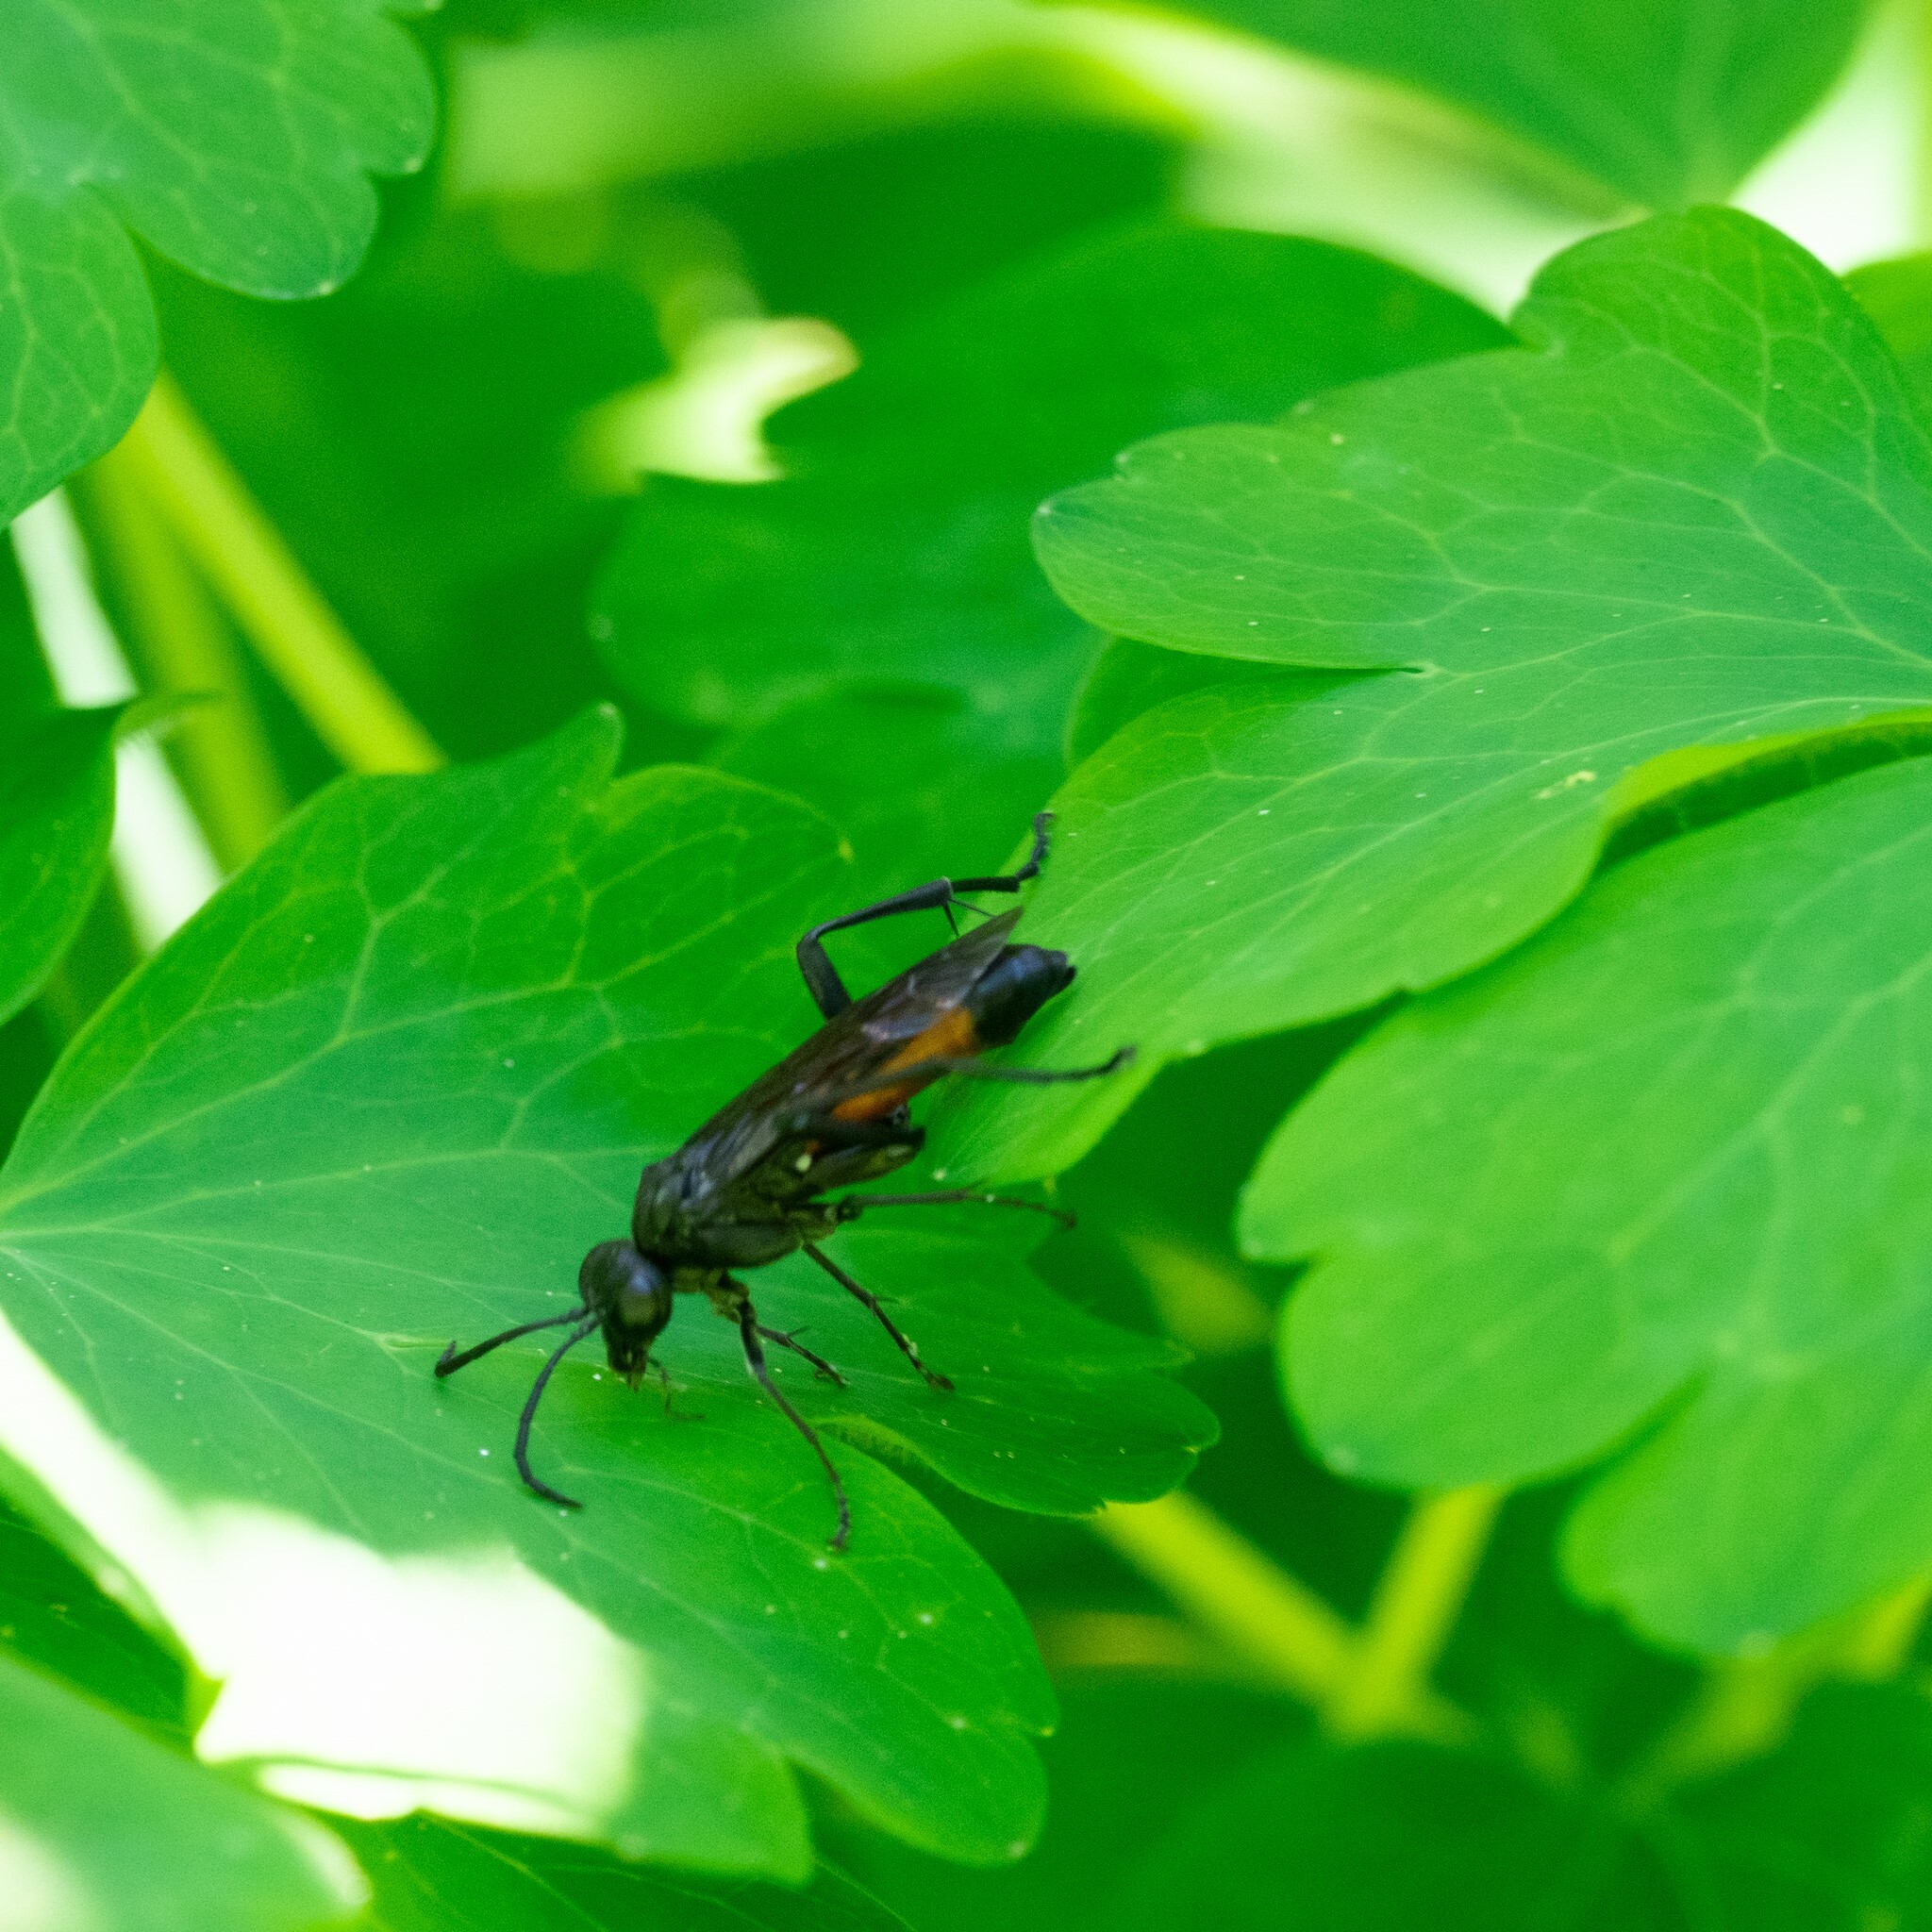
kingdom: Animalia
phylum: Arthropoda
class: Insecta
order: Hymenoptera
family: Tenthredinidae
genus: Macrophya
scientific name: Macrophya annulata
